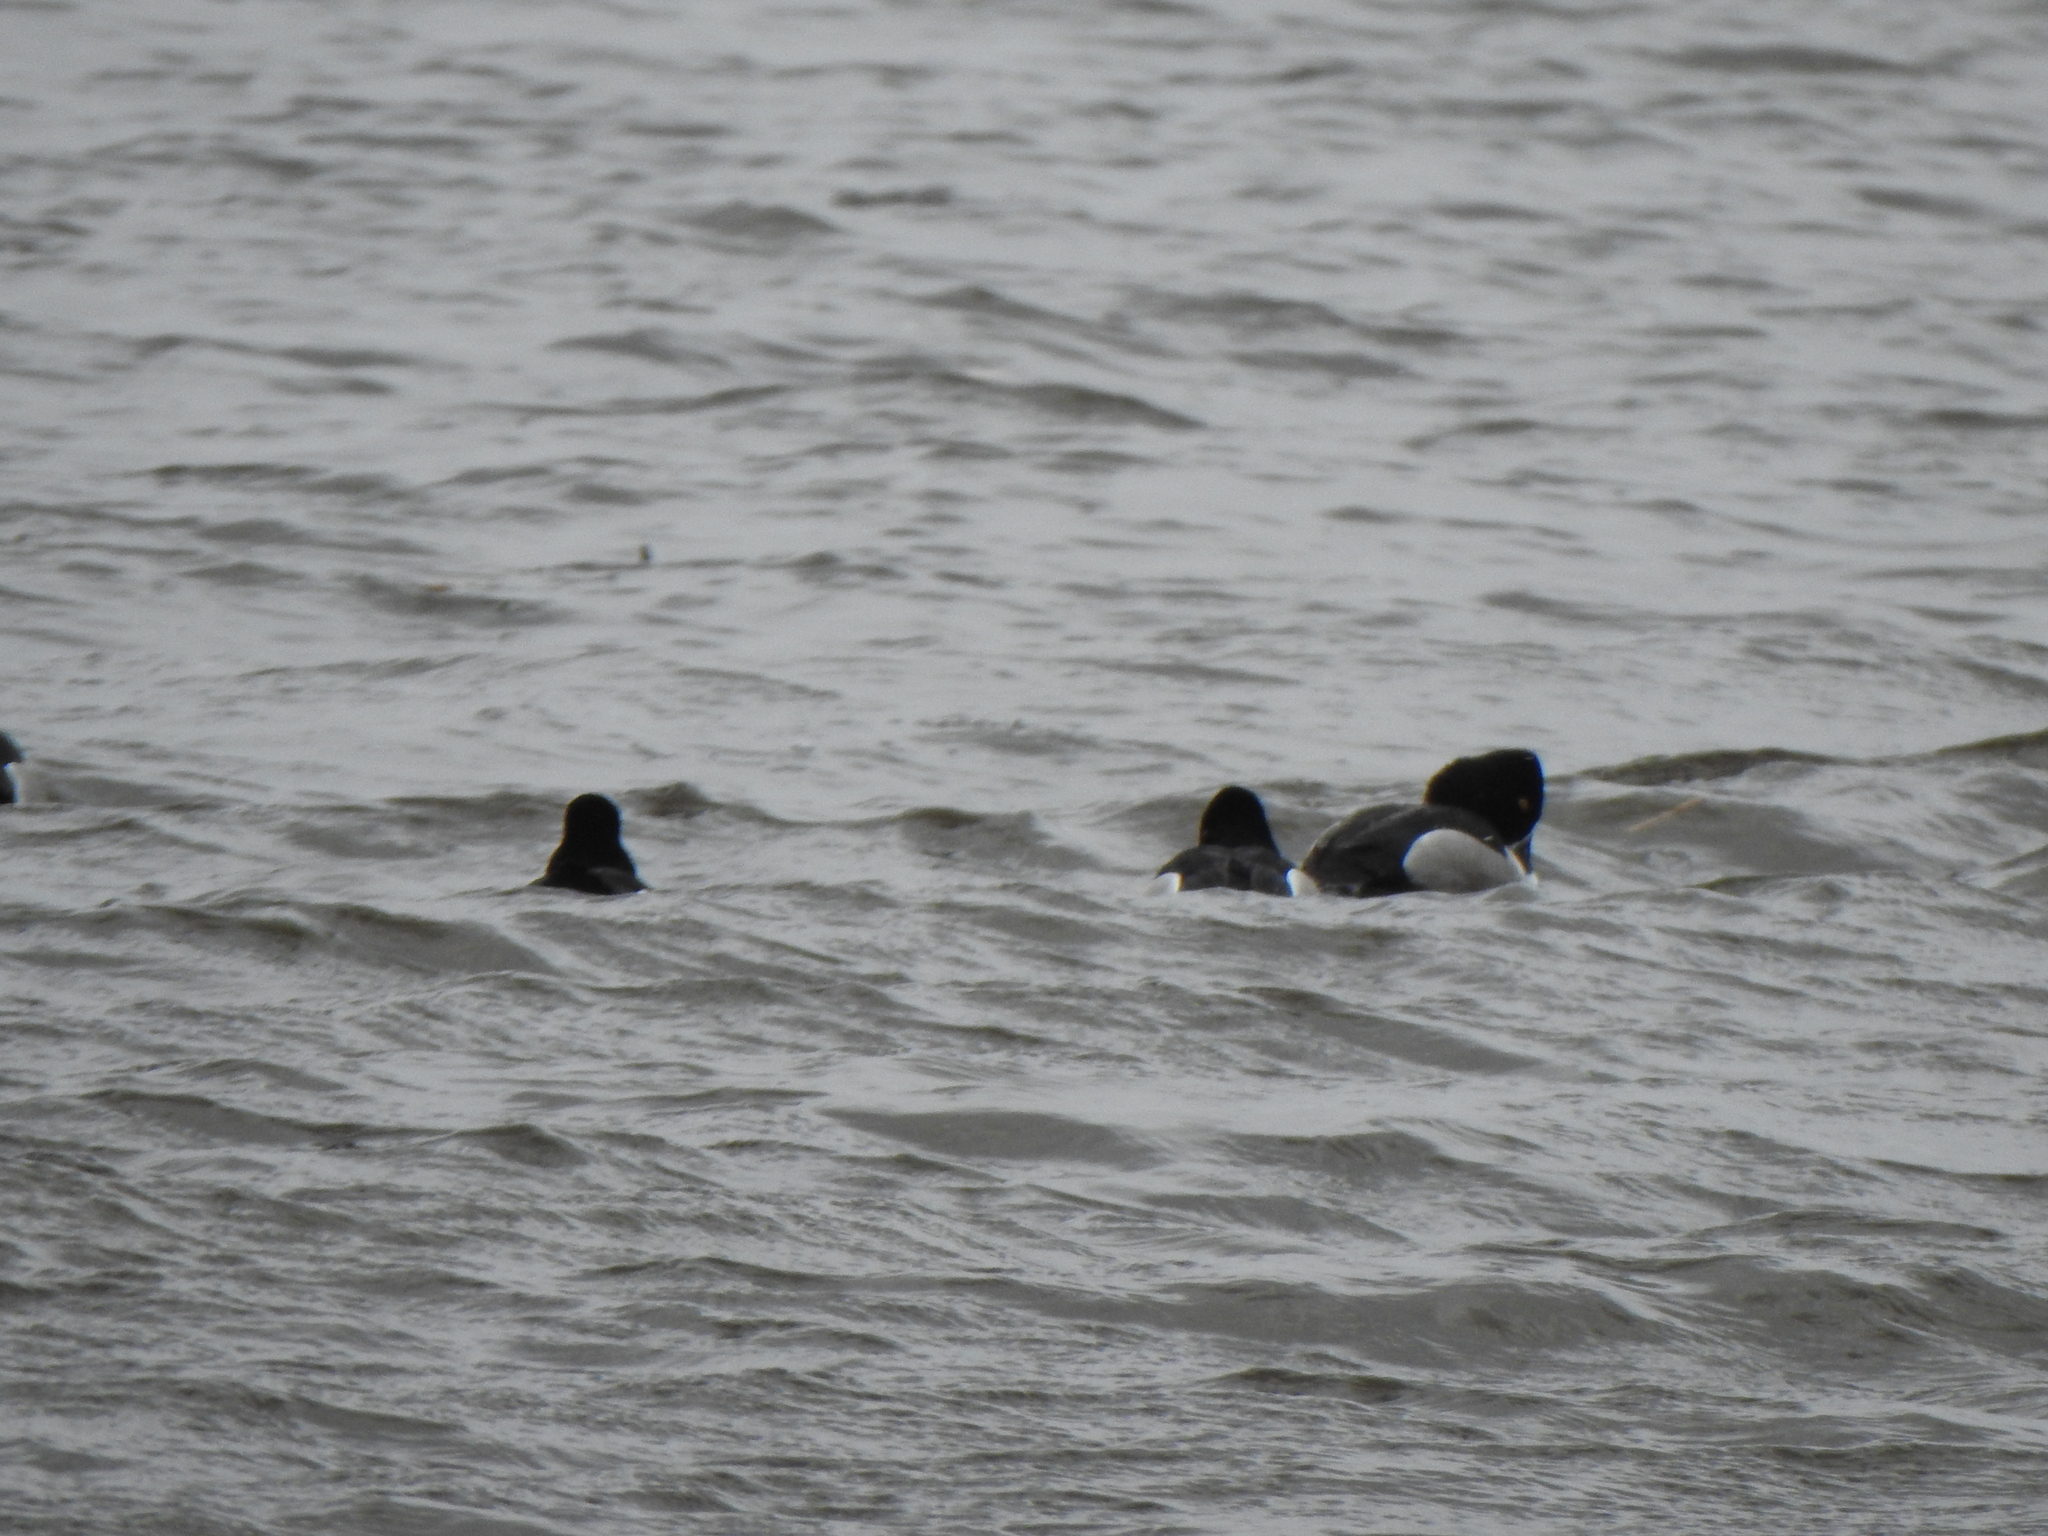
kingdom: Animalia
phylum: Chordata
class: Aves
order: Anseriformes
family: Anatidae
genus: Aythya
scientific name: Aythya collaris
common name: Ring-necked duck
